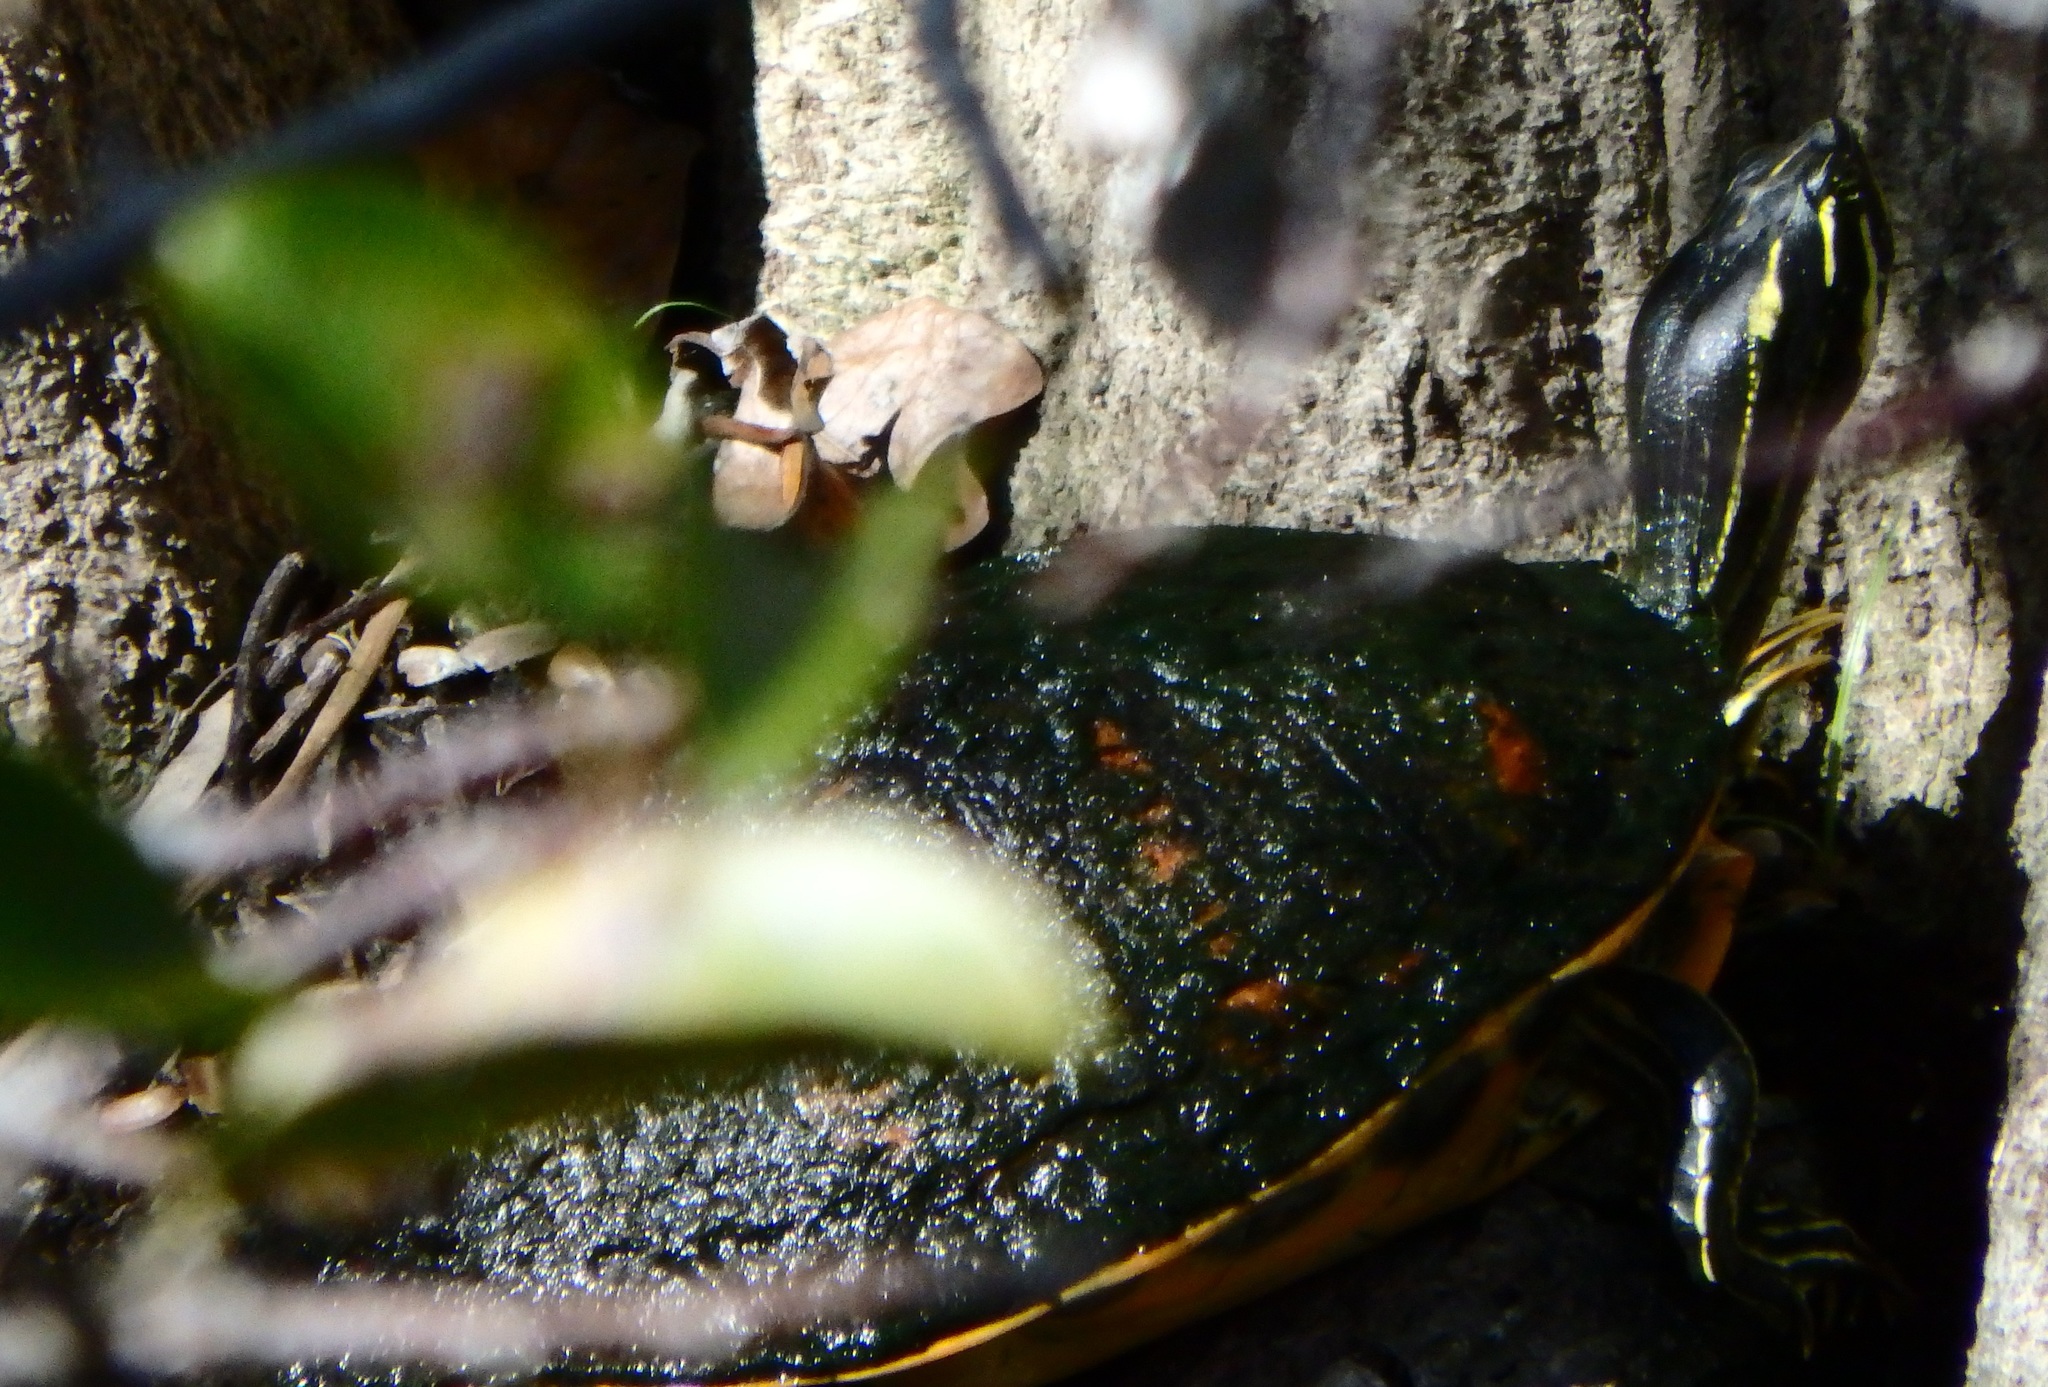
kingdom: Animalia
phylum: Chordata
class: Testudines
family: Emydidae
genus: Pseudemys
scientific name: Pseudemys nelsoni
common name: Florida red-bellied turtle
